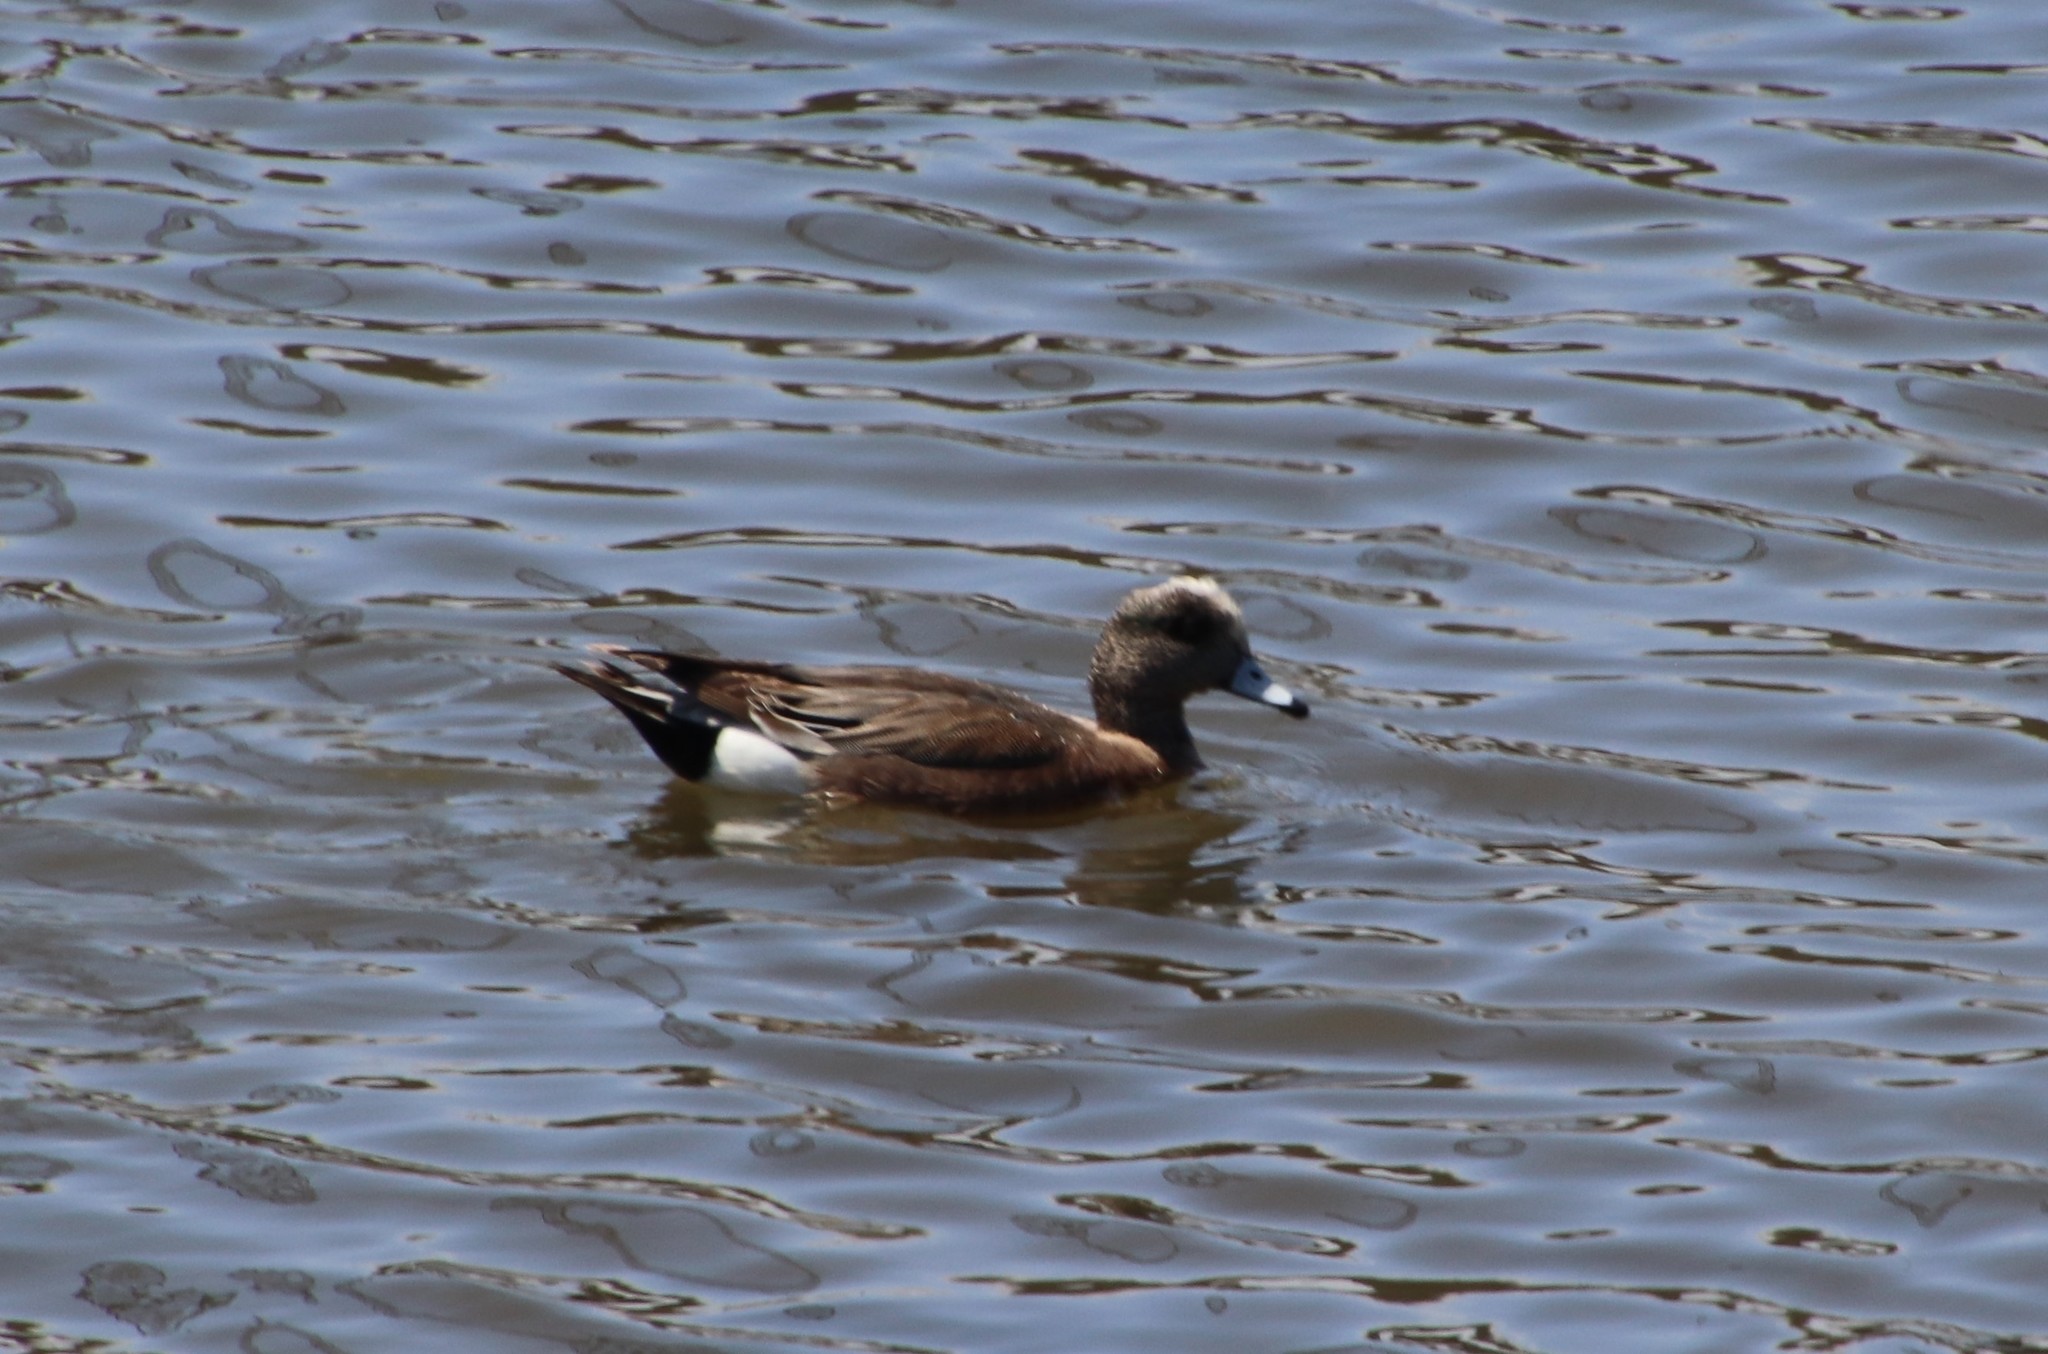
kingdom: Animalia
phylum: Chordata
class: Aves
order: Anseriformes
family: Anatidae
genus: Mareca
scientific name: Mareca americana
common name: American wigeon
